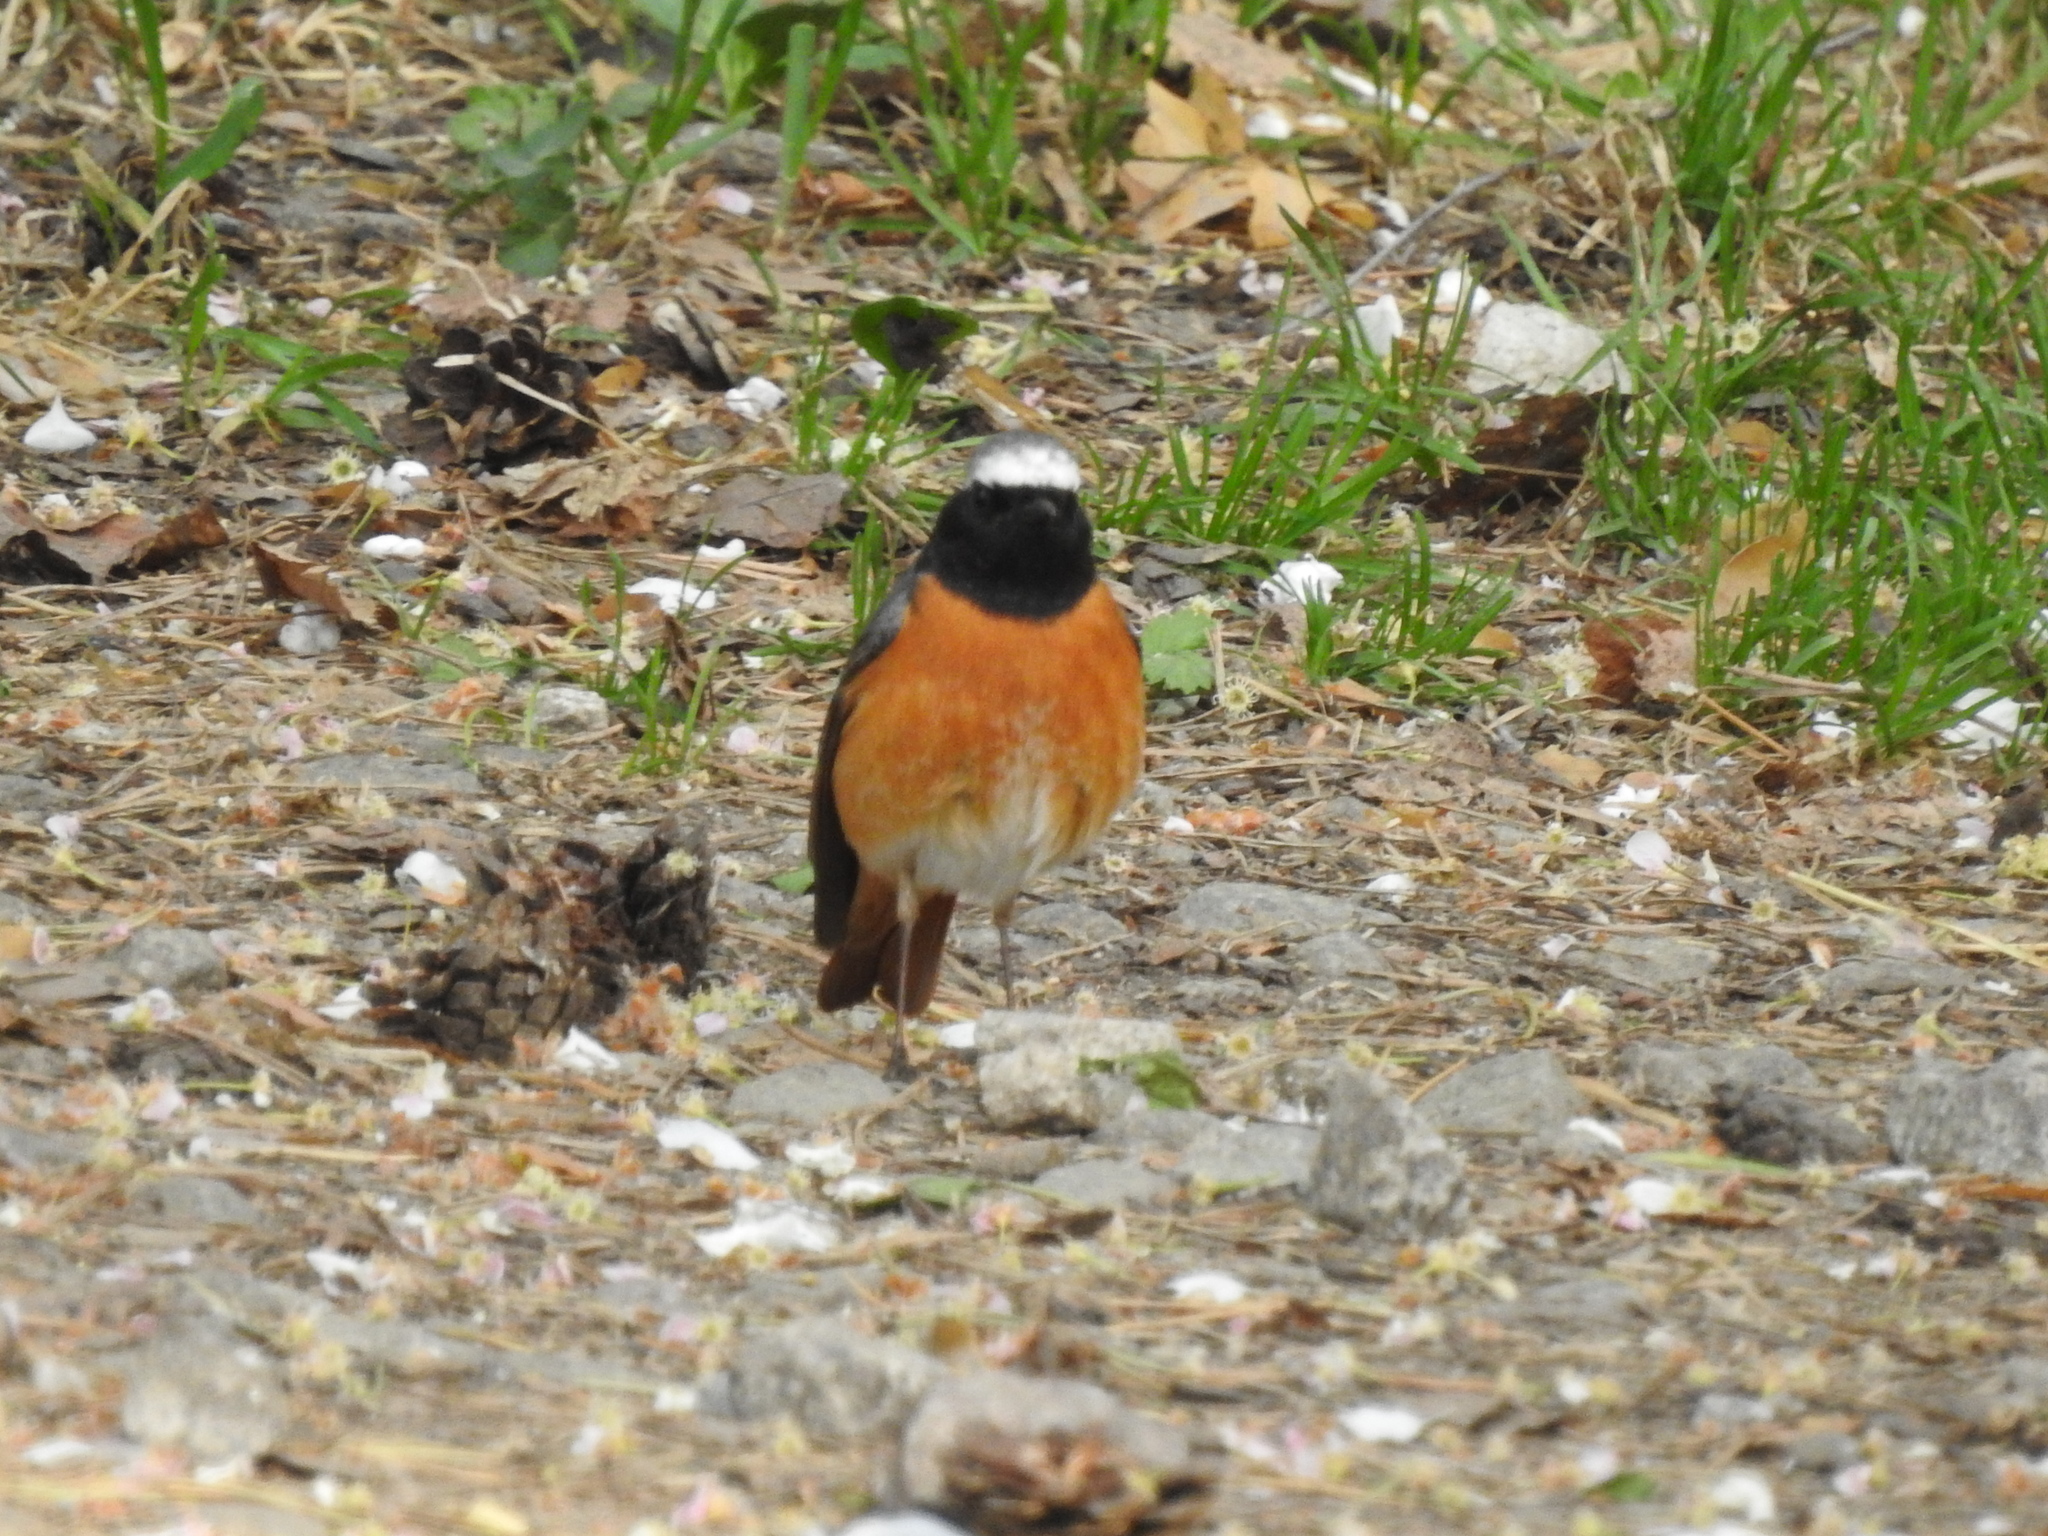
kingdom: Animalia
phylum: Chordata
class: Aves
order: Passeriformes
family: Muscicapidae
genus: Phoenicurus
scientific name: Phoenicurus phoenicurus
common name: Common redstart
